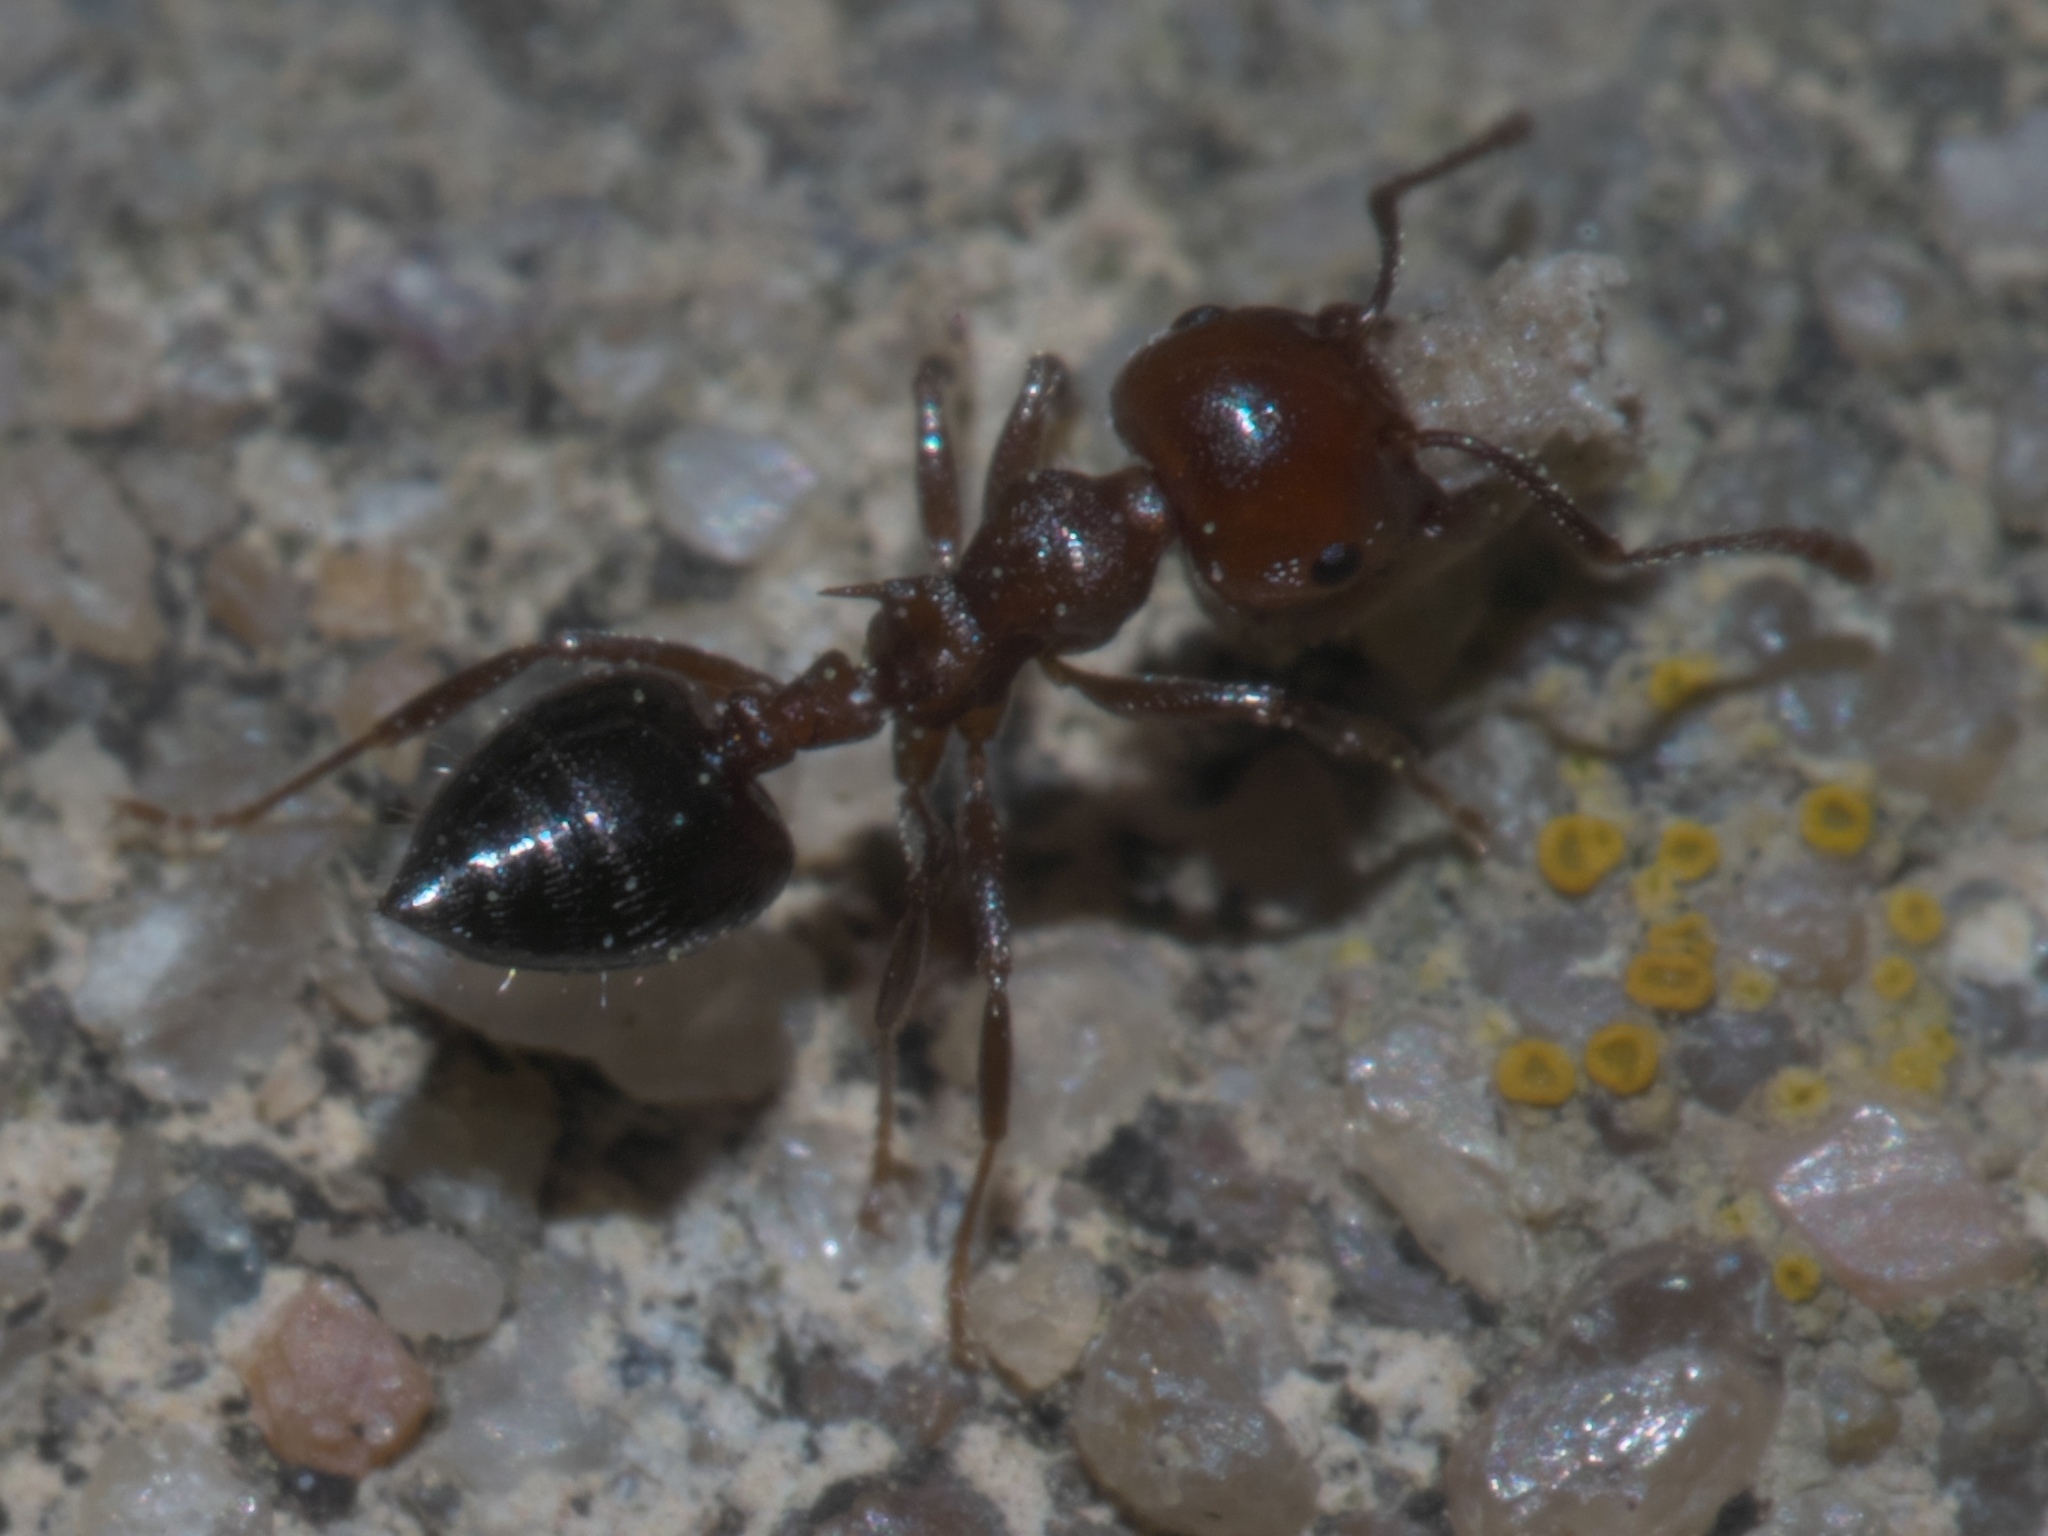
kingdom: Animalia
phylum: Arthropoda
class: Insecta
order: Hymenoptera
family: Formicidae
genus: Crematogaster
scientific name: Crematogaster laeviuscula
